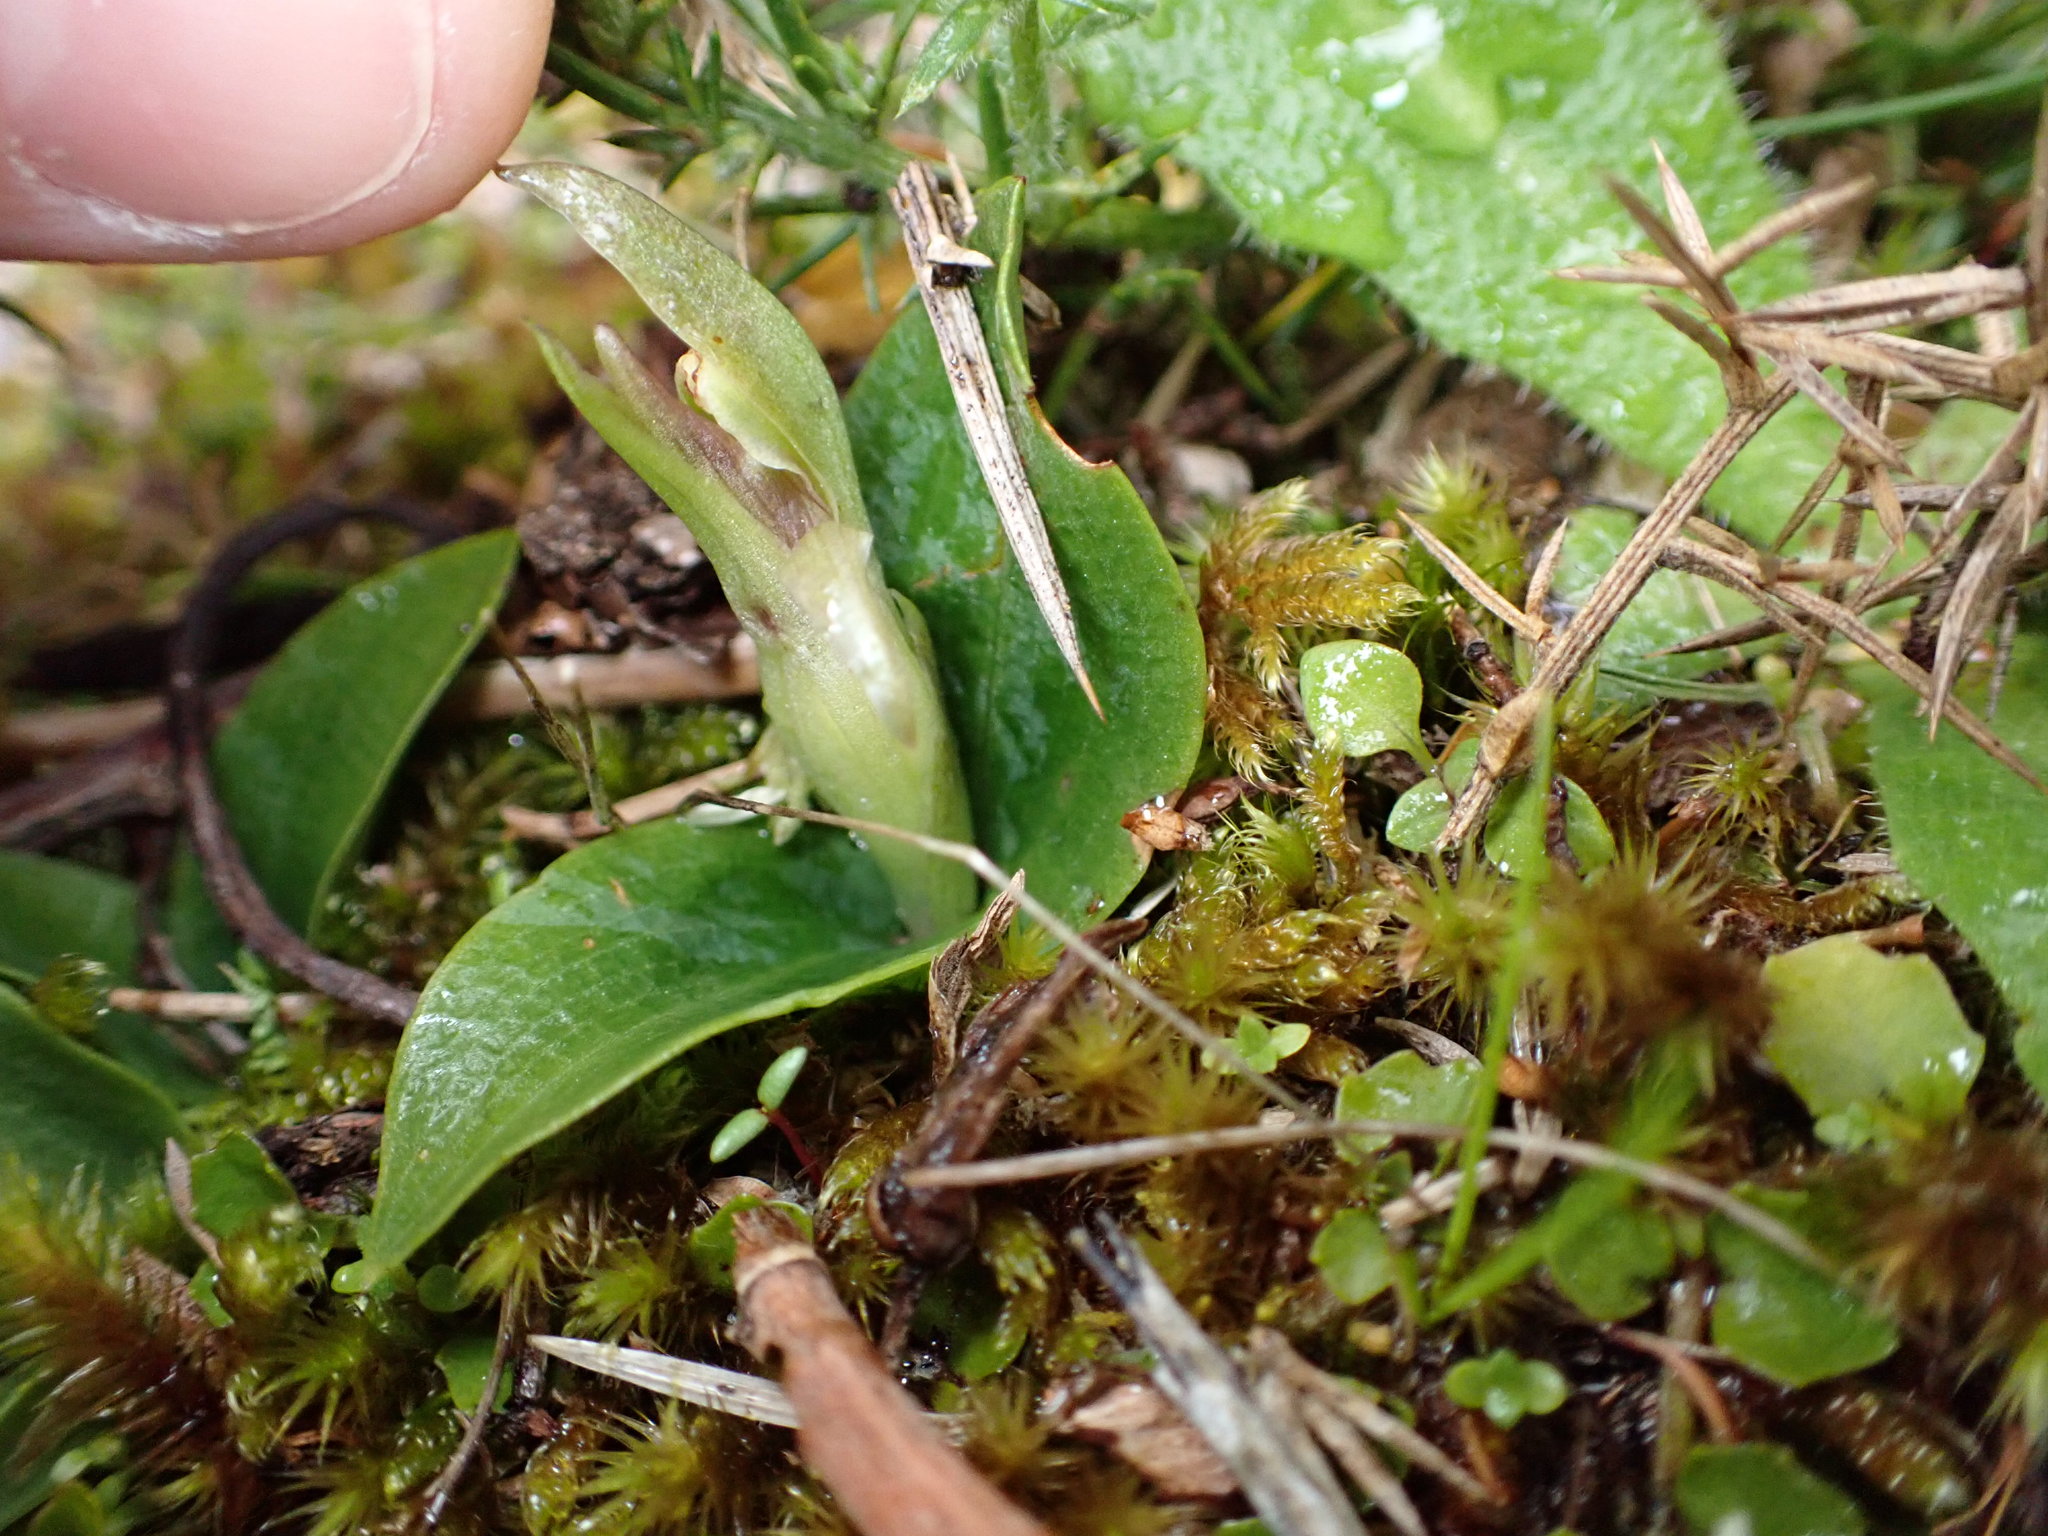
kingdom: Plantae
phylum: Tracheophyta
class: Liliopsida
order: Asparagales
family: Orchidaceae
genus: Chiloglottis
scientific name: Chiloglottis cornuta
